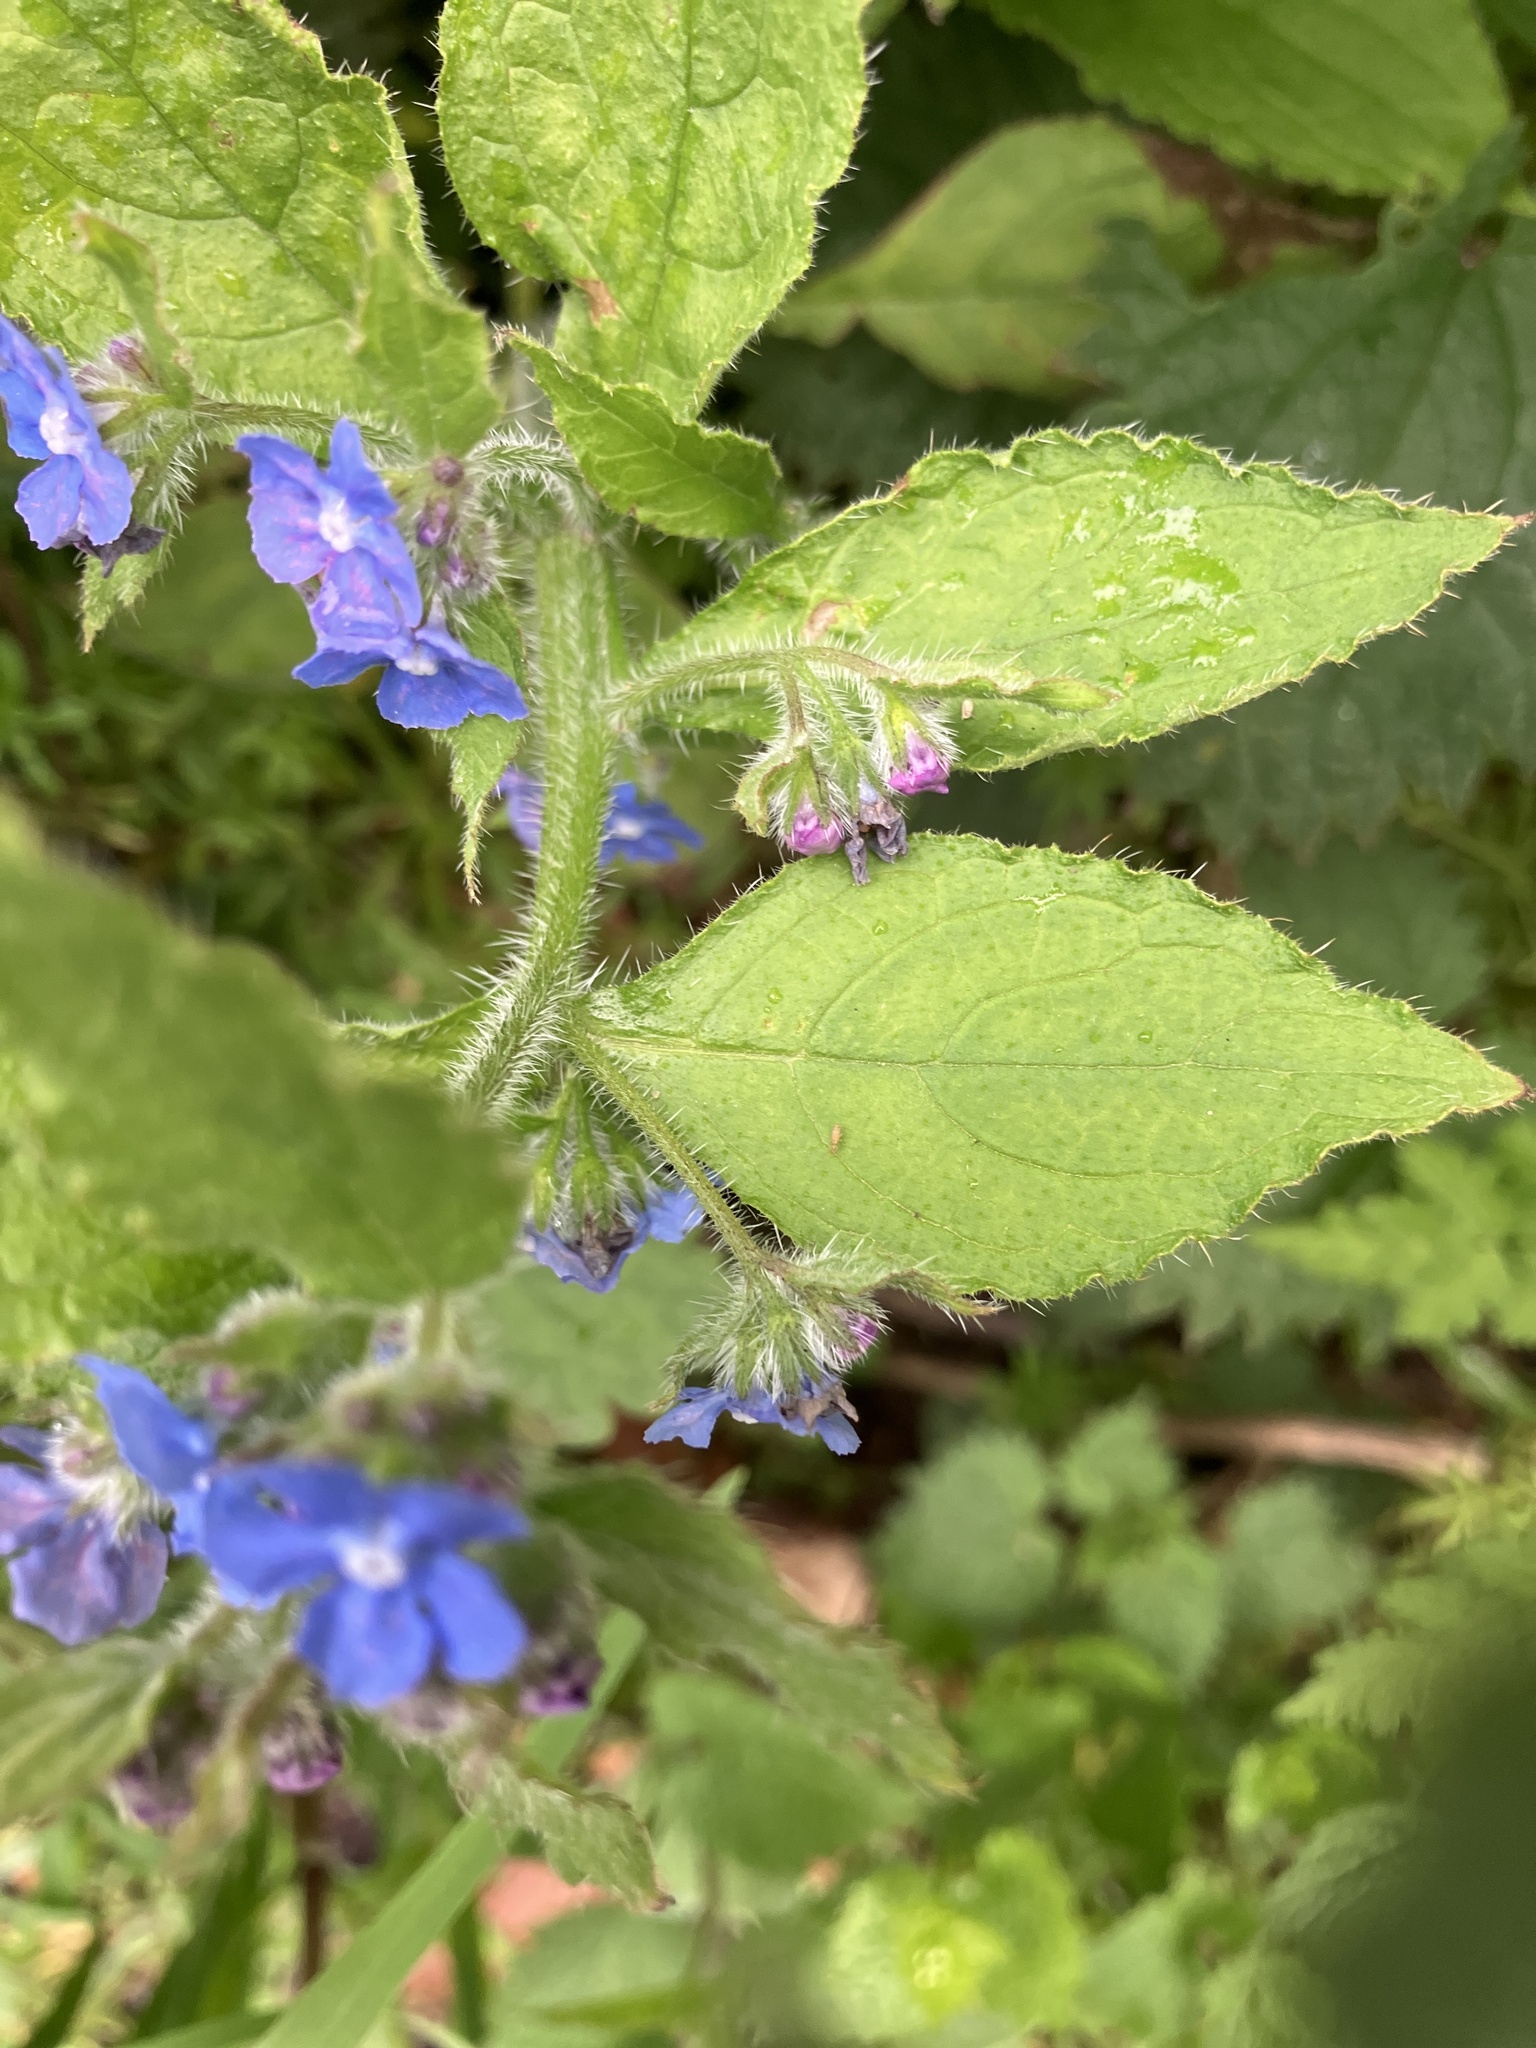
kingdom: Plantae
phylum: Tracheophyta
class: Magnoliopsida
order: Boraginales
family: Boraginaceae
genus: Pentaglottis
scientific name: Pentaglottis sempervirens
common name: Green alkanet
